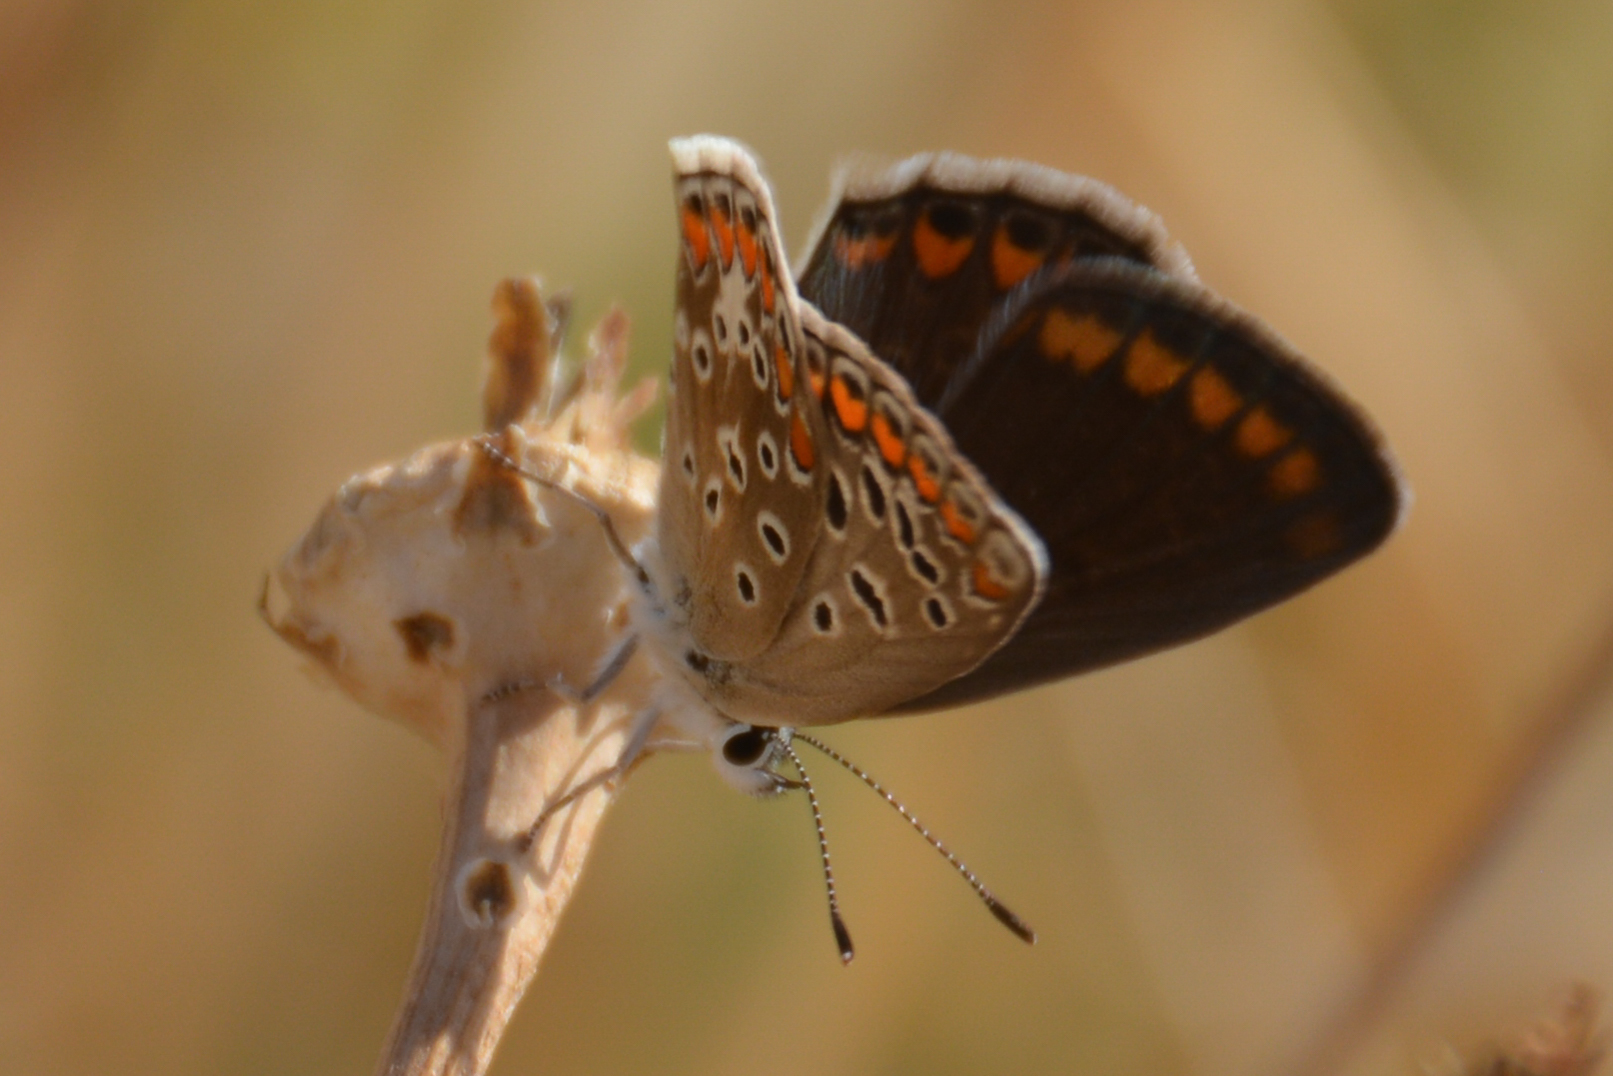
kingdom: Animalia
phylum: Arthropoda
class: Insecta
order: Lepidoptera
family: Lycaenidae
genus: Polyommatus
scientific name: Polyommatus celina
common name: Austaut's blue
